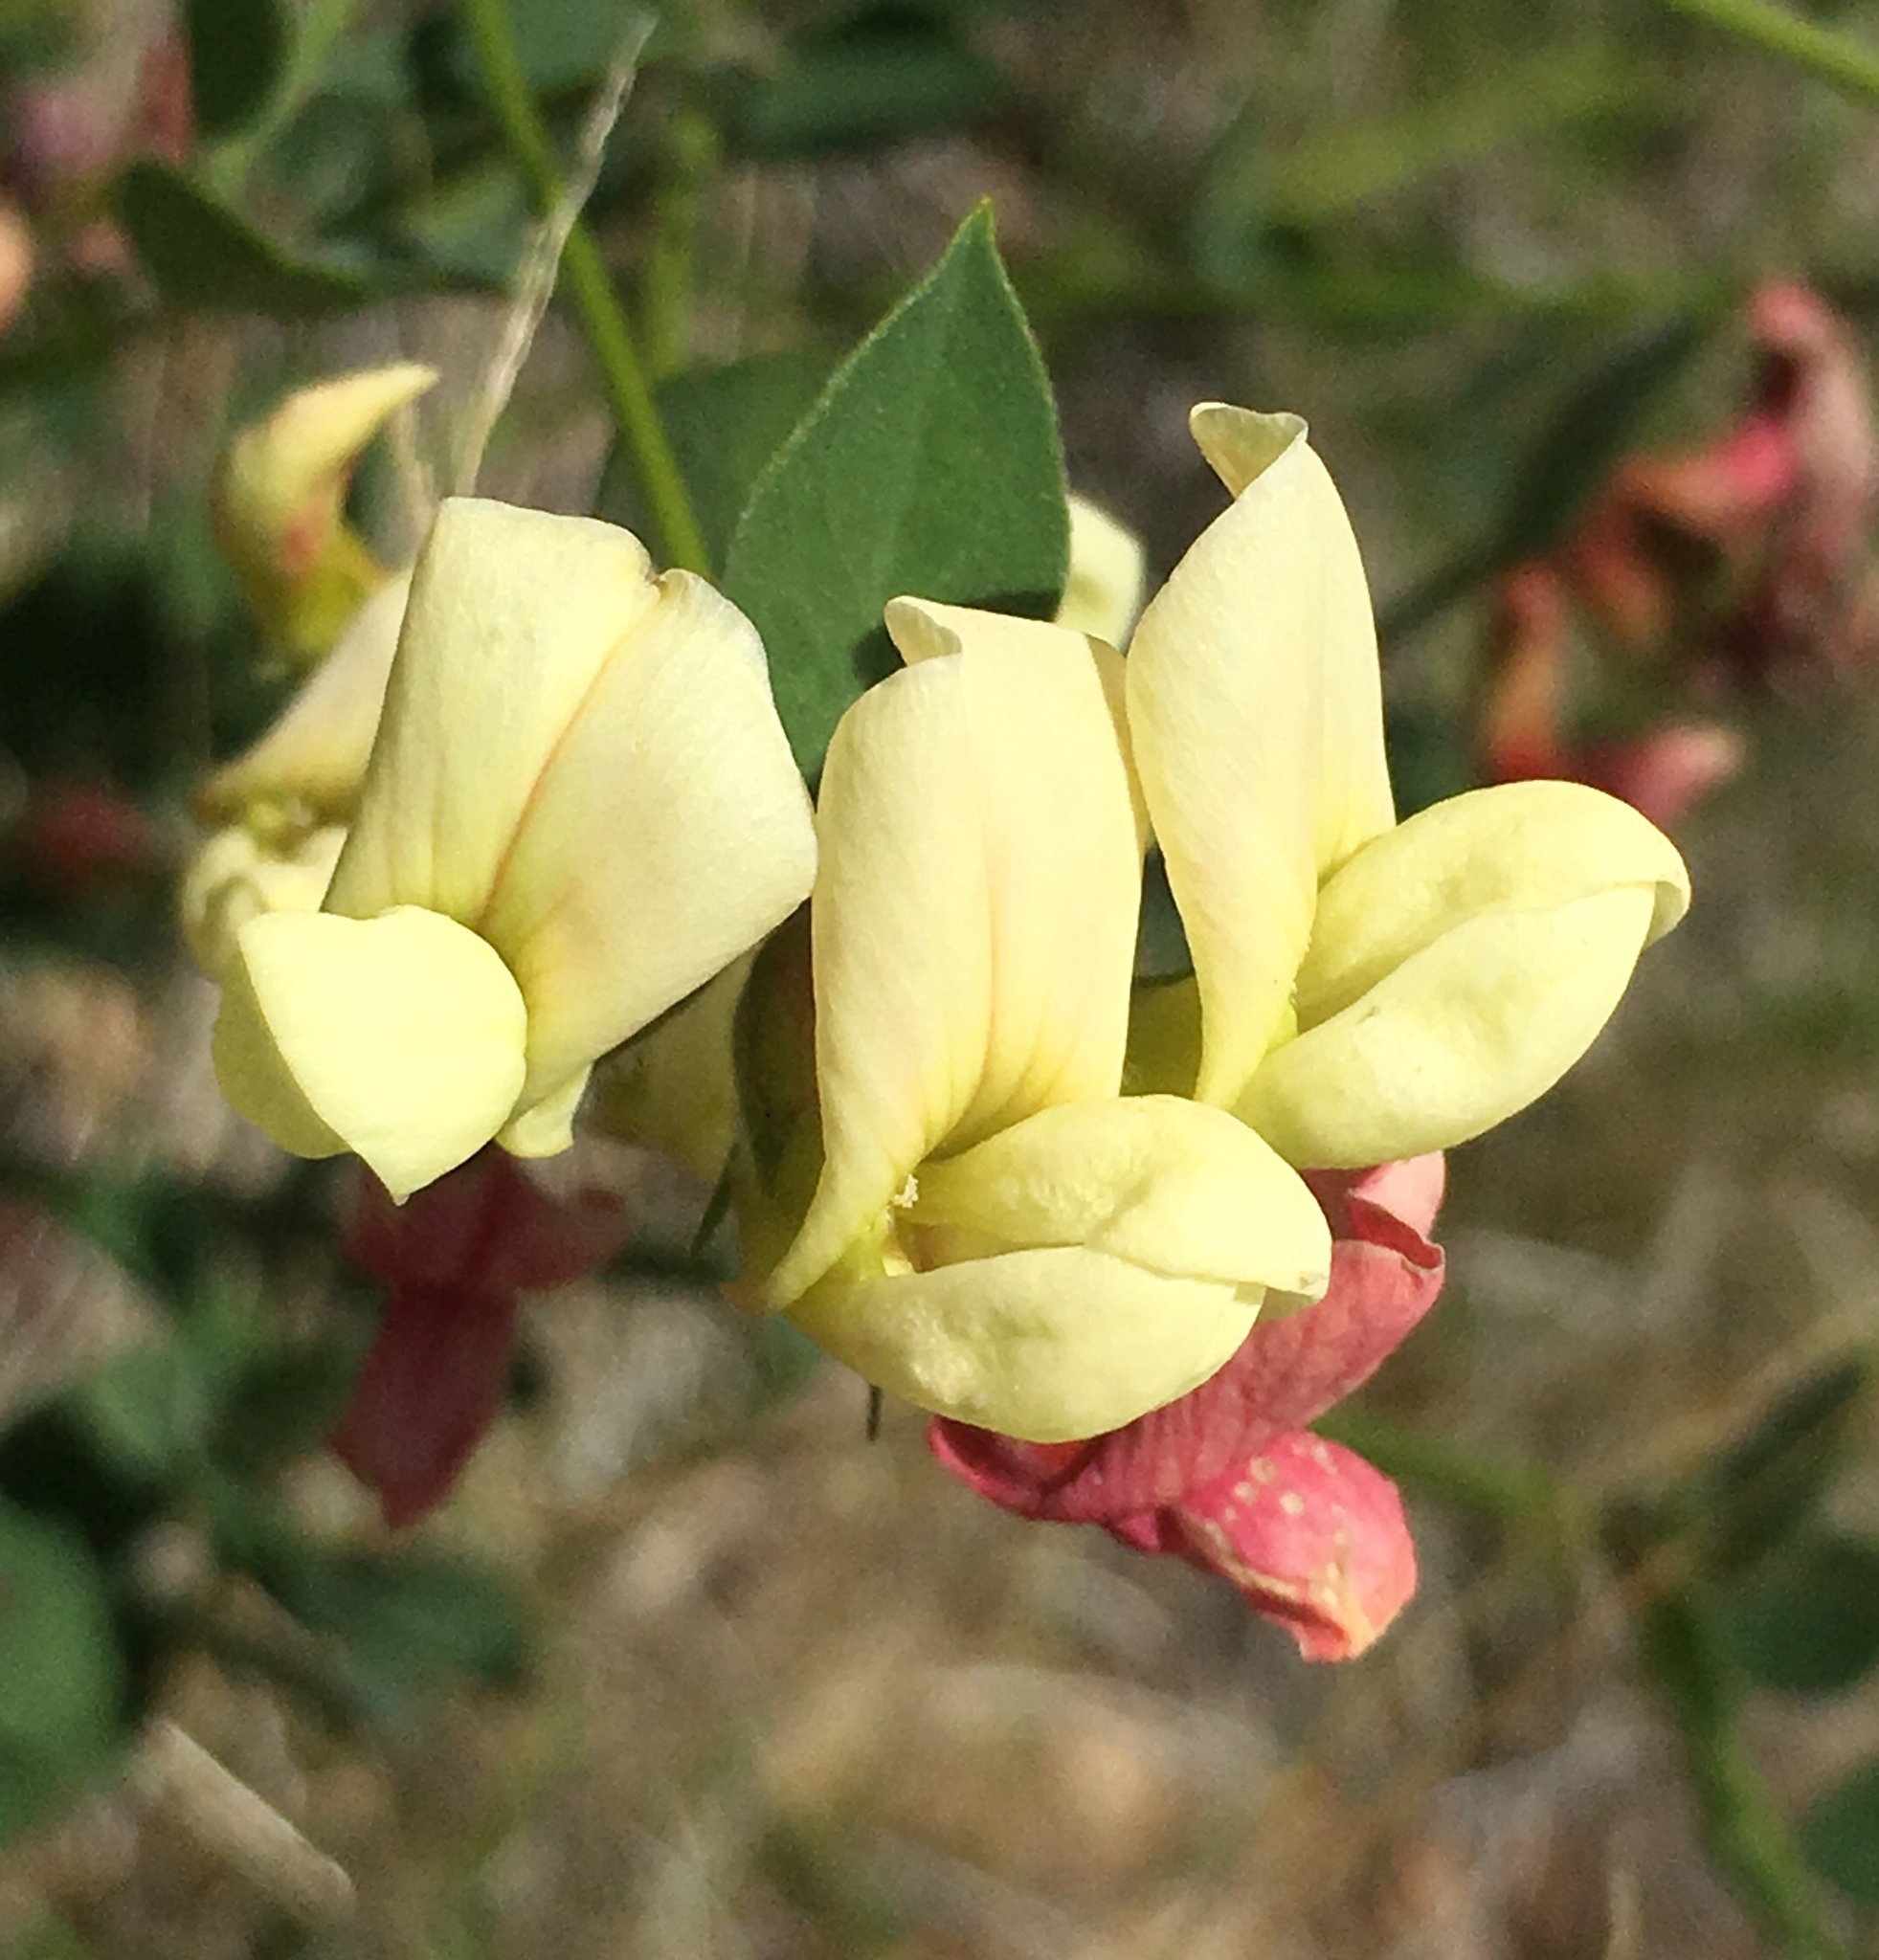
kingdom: Plantae
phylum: Tracheophyta
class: Magnoliopsida
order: Fabales
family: Fabaceae
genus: Acmispon
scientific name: Acmispon grandiflorus
